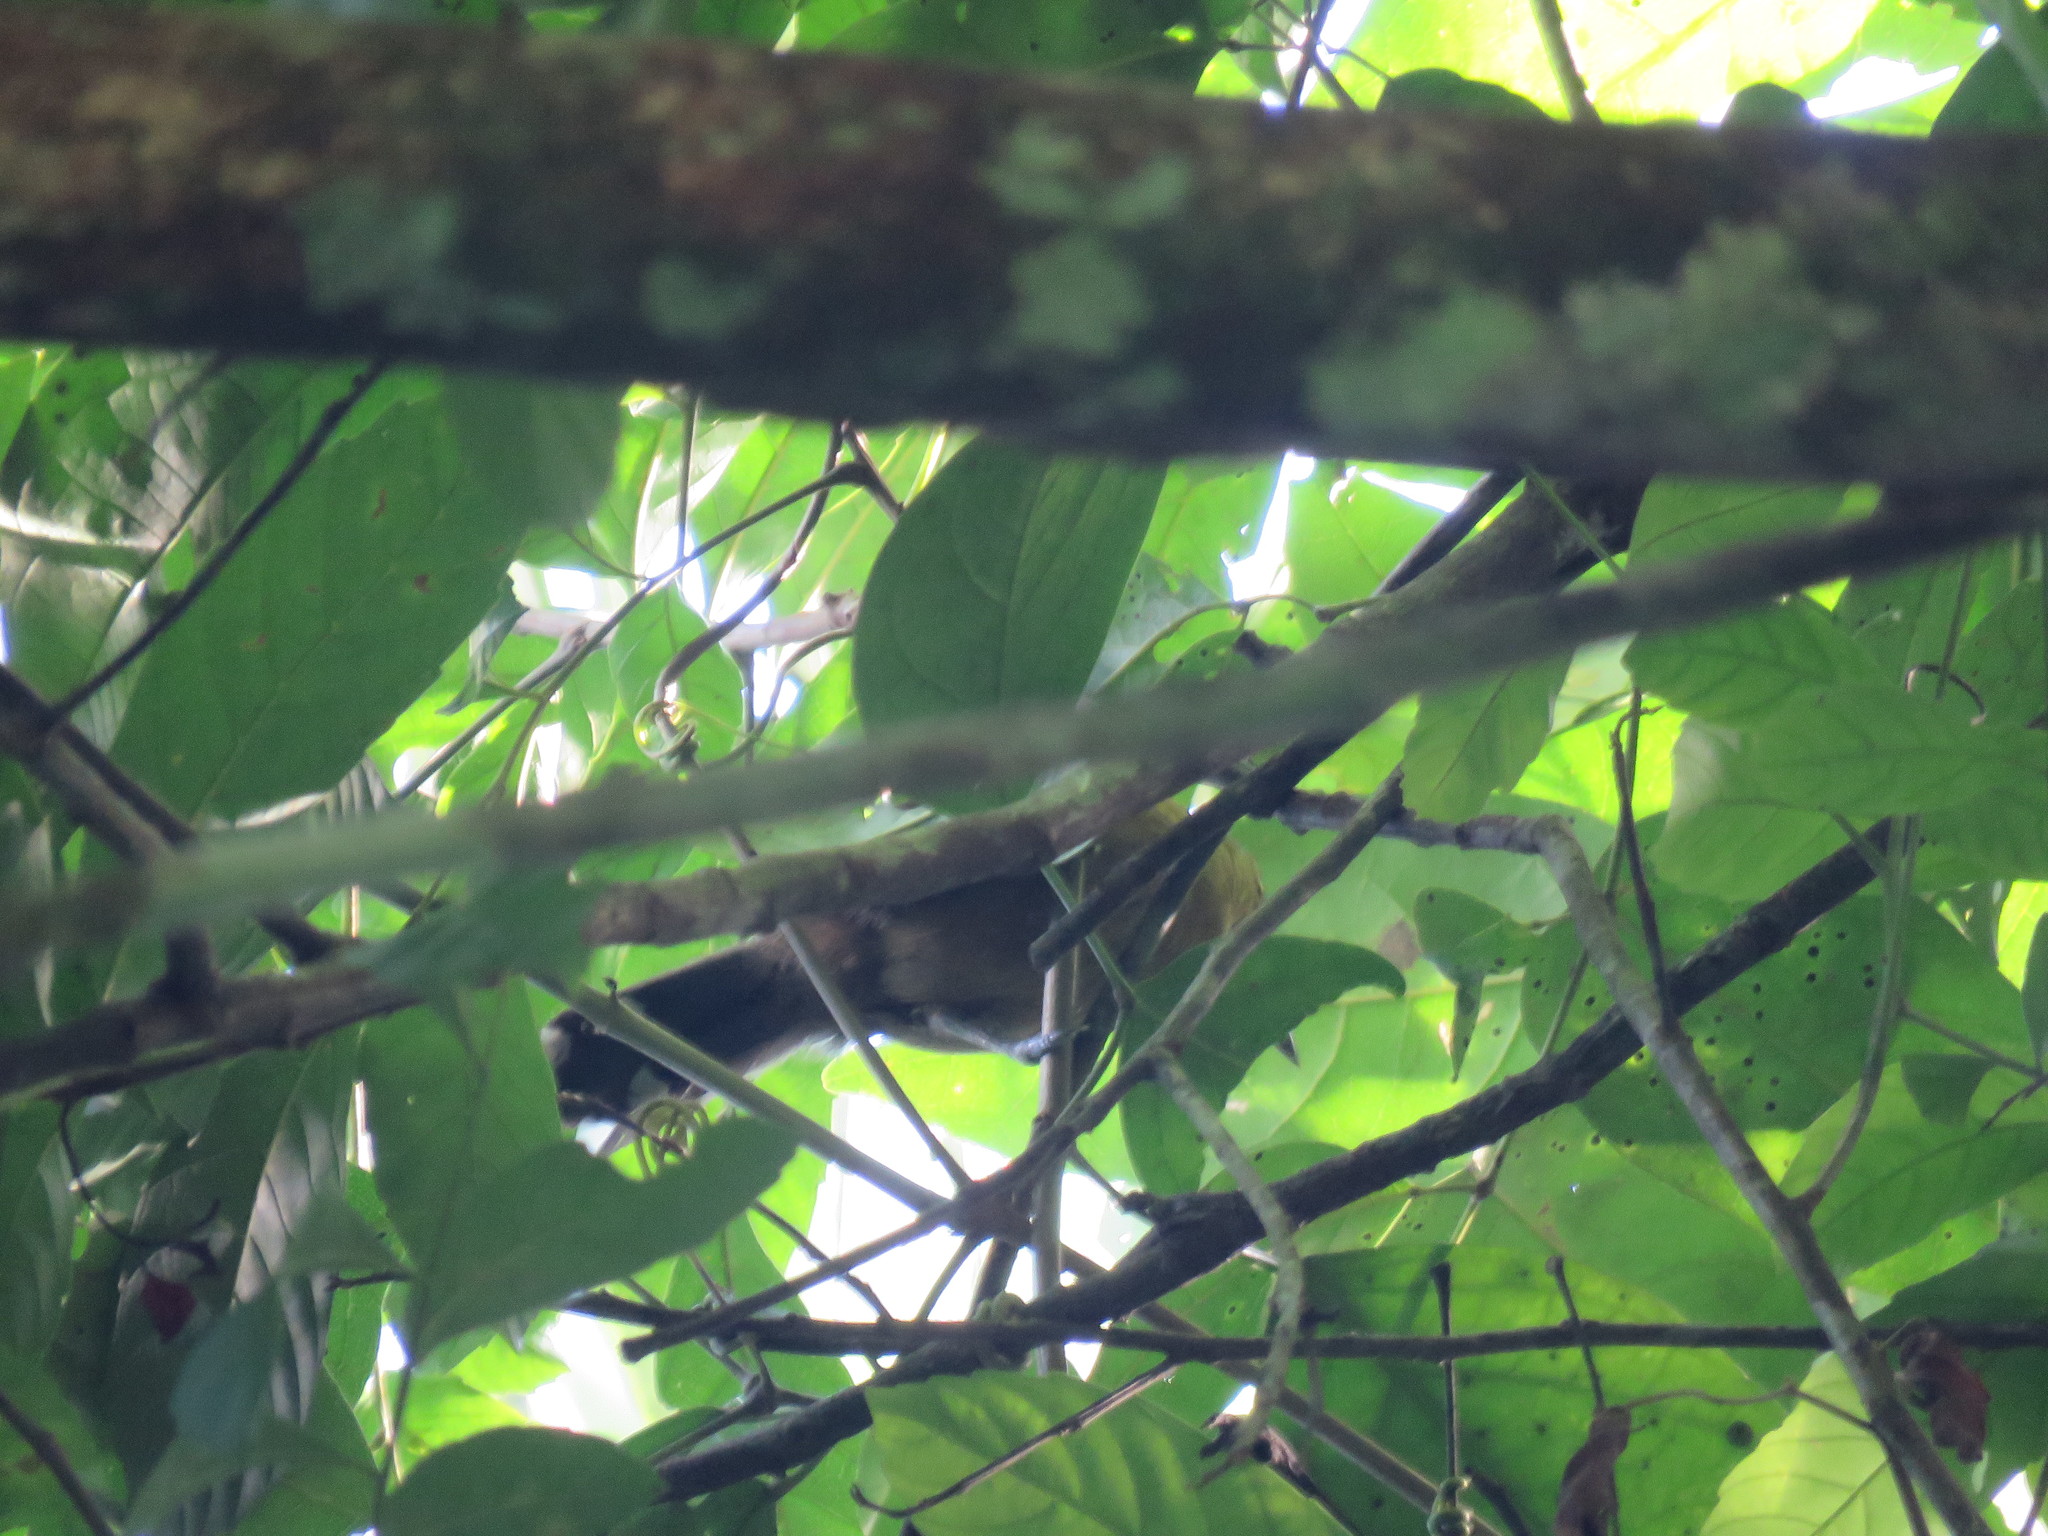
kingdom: Animalia
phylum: Chordata
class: Aves
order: Passeriformes
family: Thamnophilidae
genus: Cercomacra
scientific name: Cercomacra cinerascens
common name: Grey antbird
